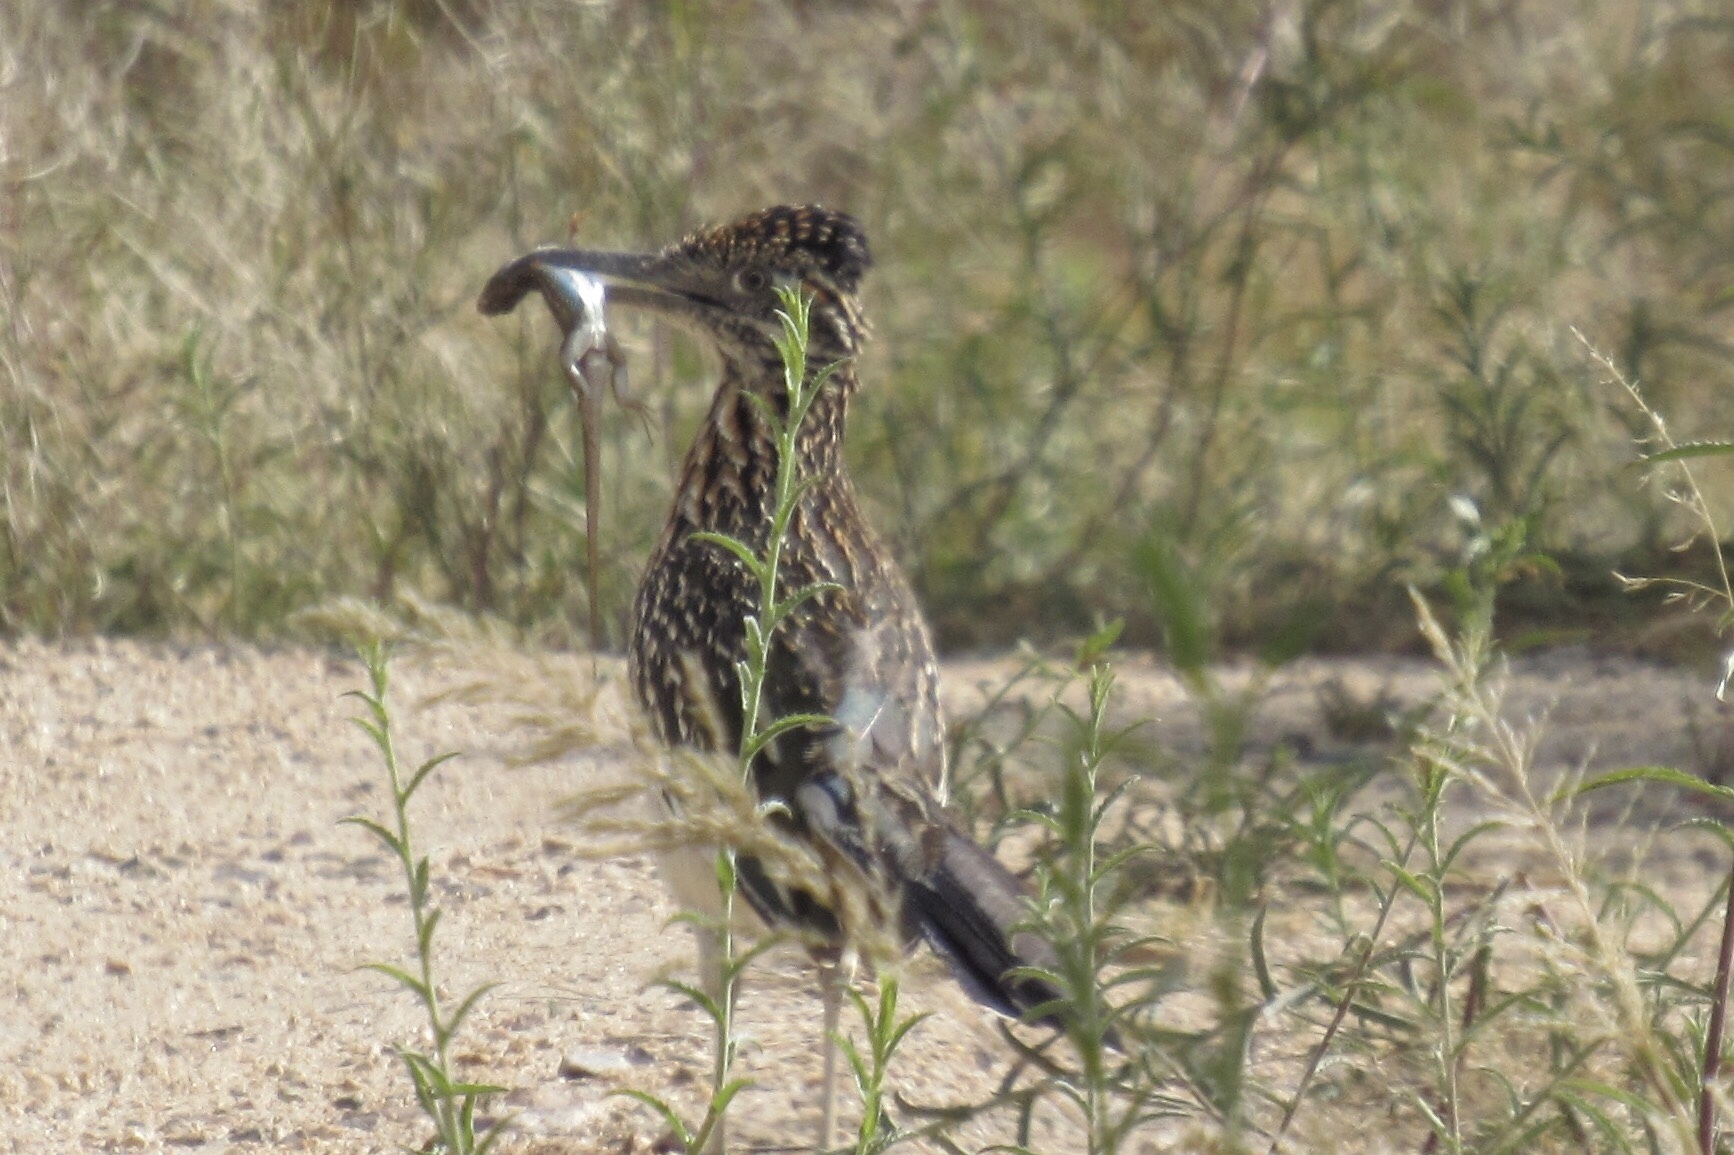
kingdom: Animalia
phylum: Chordata
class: Aves
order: Cuculiformes
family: Cuculidae
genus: Geococcyx
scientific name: Geococcyx californianus
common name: Greater roadrunner
